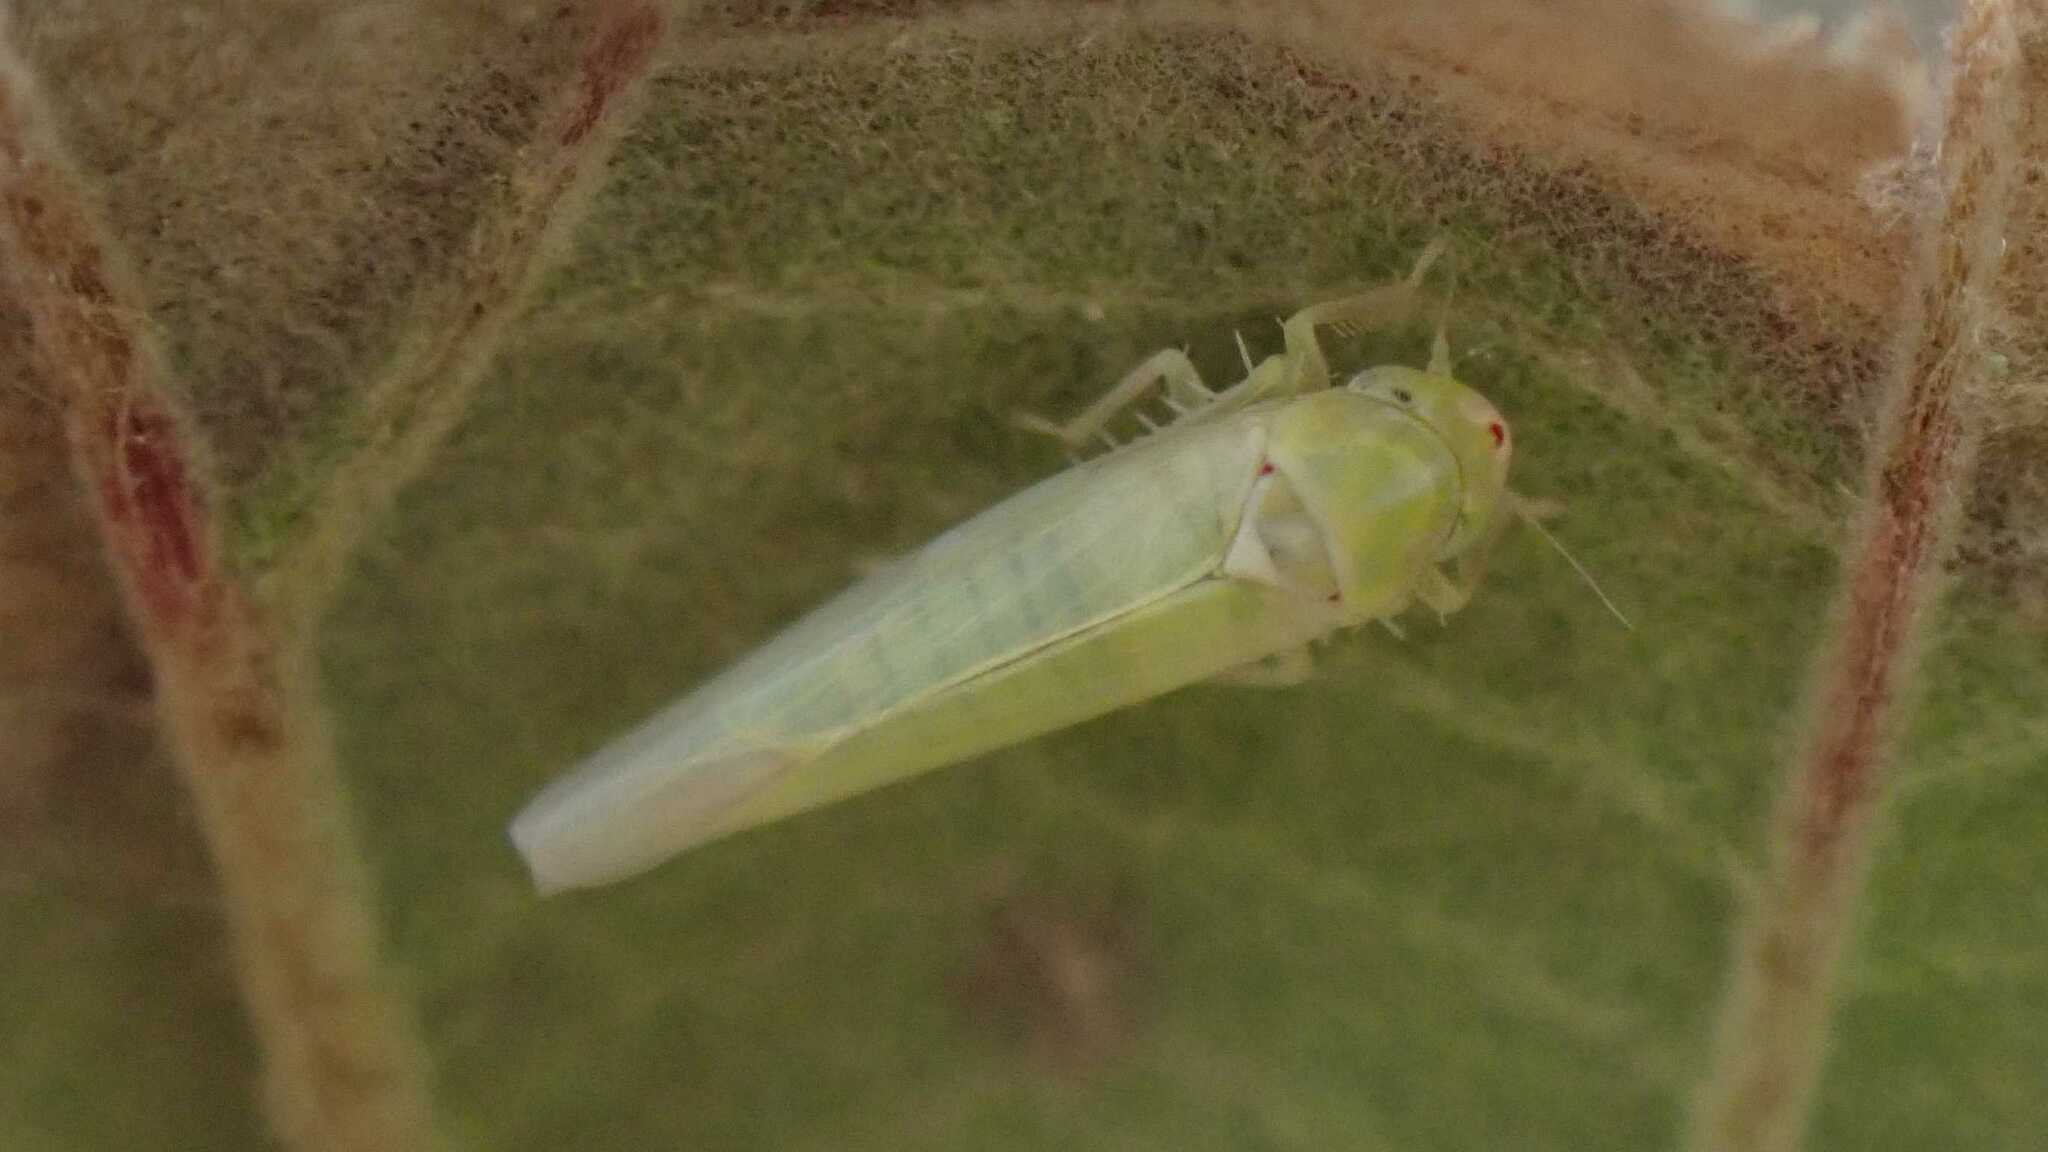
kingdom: Animalia
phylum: Arthropoda
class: Insecta
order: Hemiptera
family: Cicadellidae
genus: Zygina
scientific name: Zygina nivea
